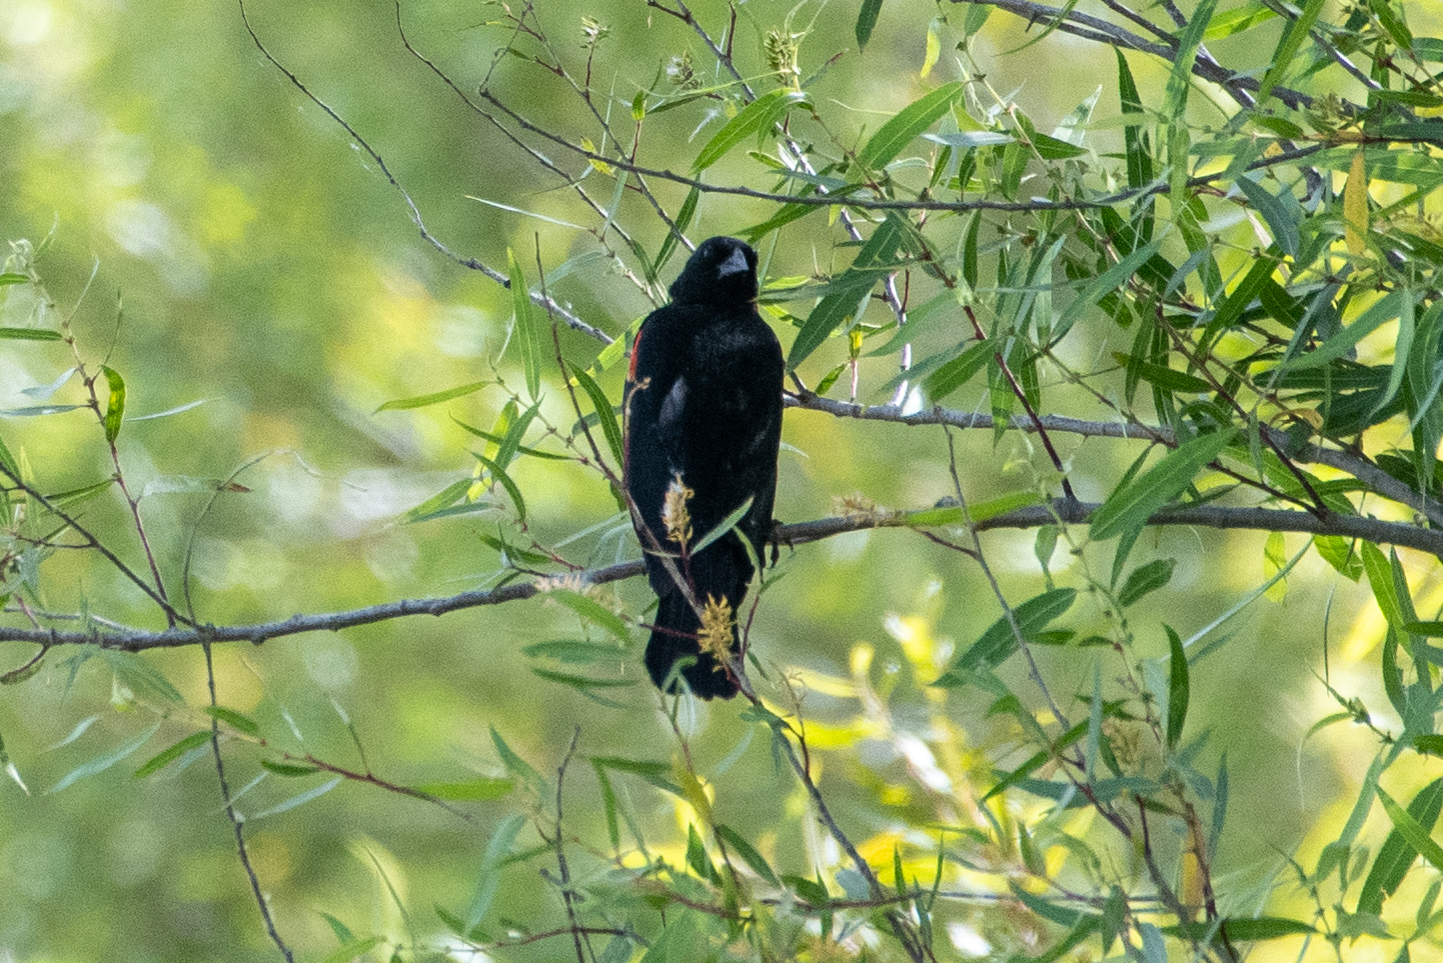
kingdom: Animalia
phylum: Chordata
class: Aves
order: Passeriformes
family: Icteridae
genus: Agelaius
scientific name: Agelaius phoeniceus
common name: Red-winged blackbird
